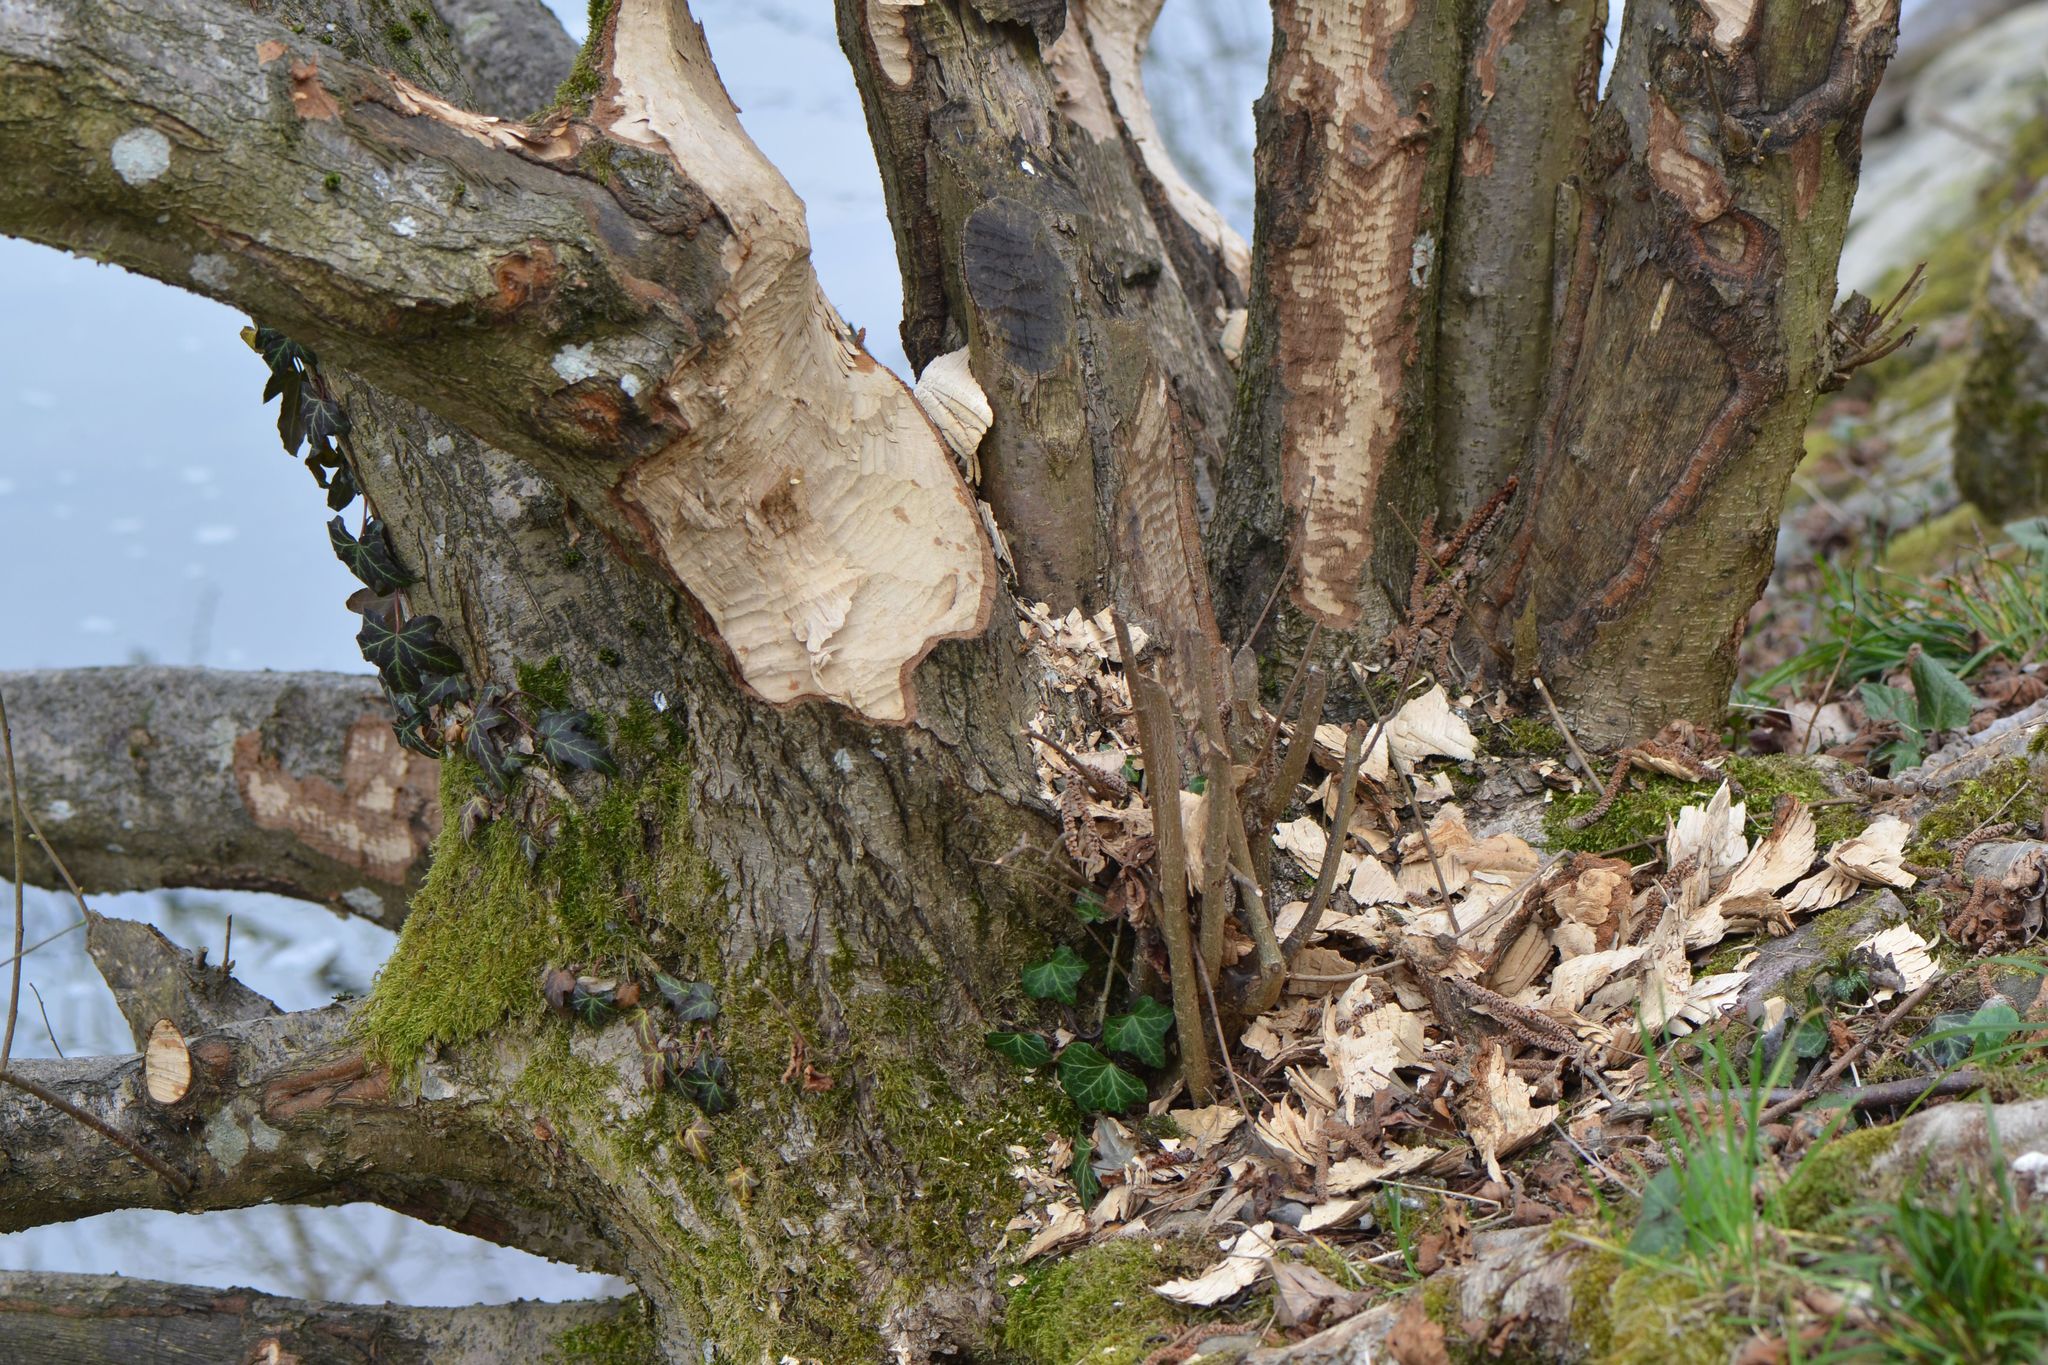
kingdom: Animalia
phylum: Chordata
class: Mammalia
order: Rodentia
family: Castoridae
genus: Castor
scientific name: Castor fiber
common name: Eurasian beaver
